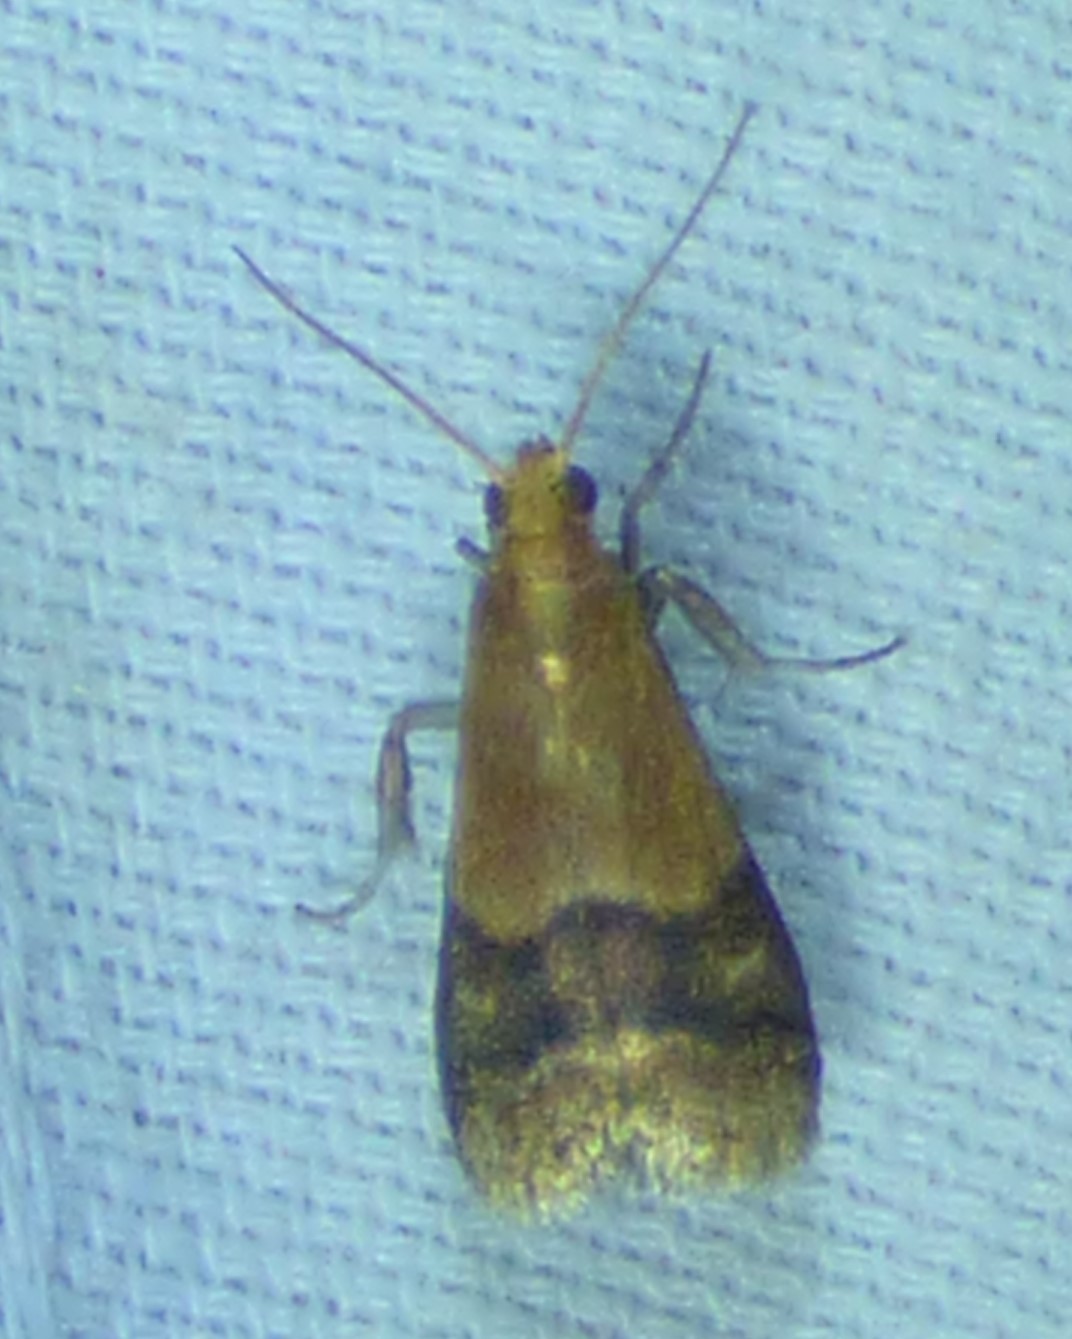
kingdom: Animalia
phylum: Arthropoda
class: Insecta
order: Lepidoptera
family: Pyralidae
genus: Eulogia
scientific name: Eulogia ochrifrontella
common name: Broad-banded eulogia moth
